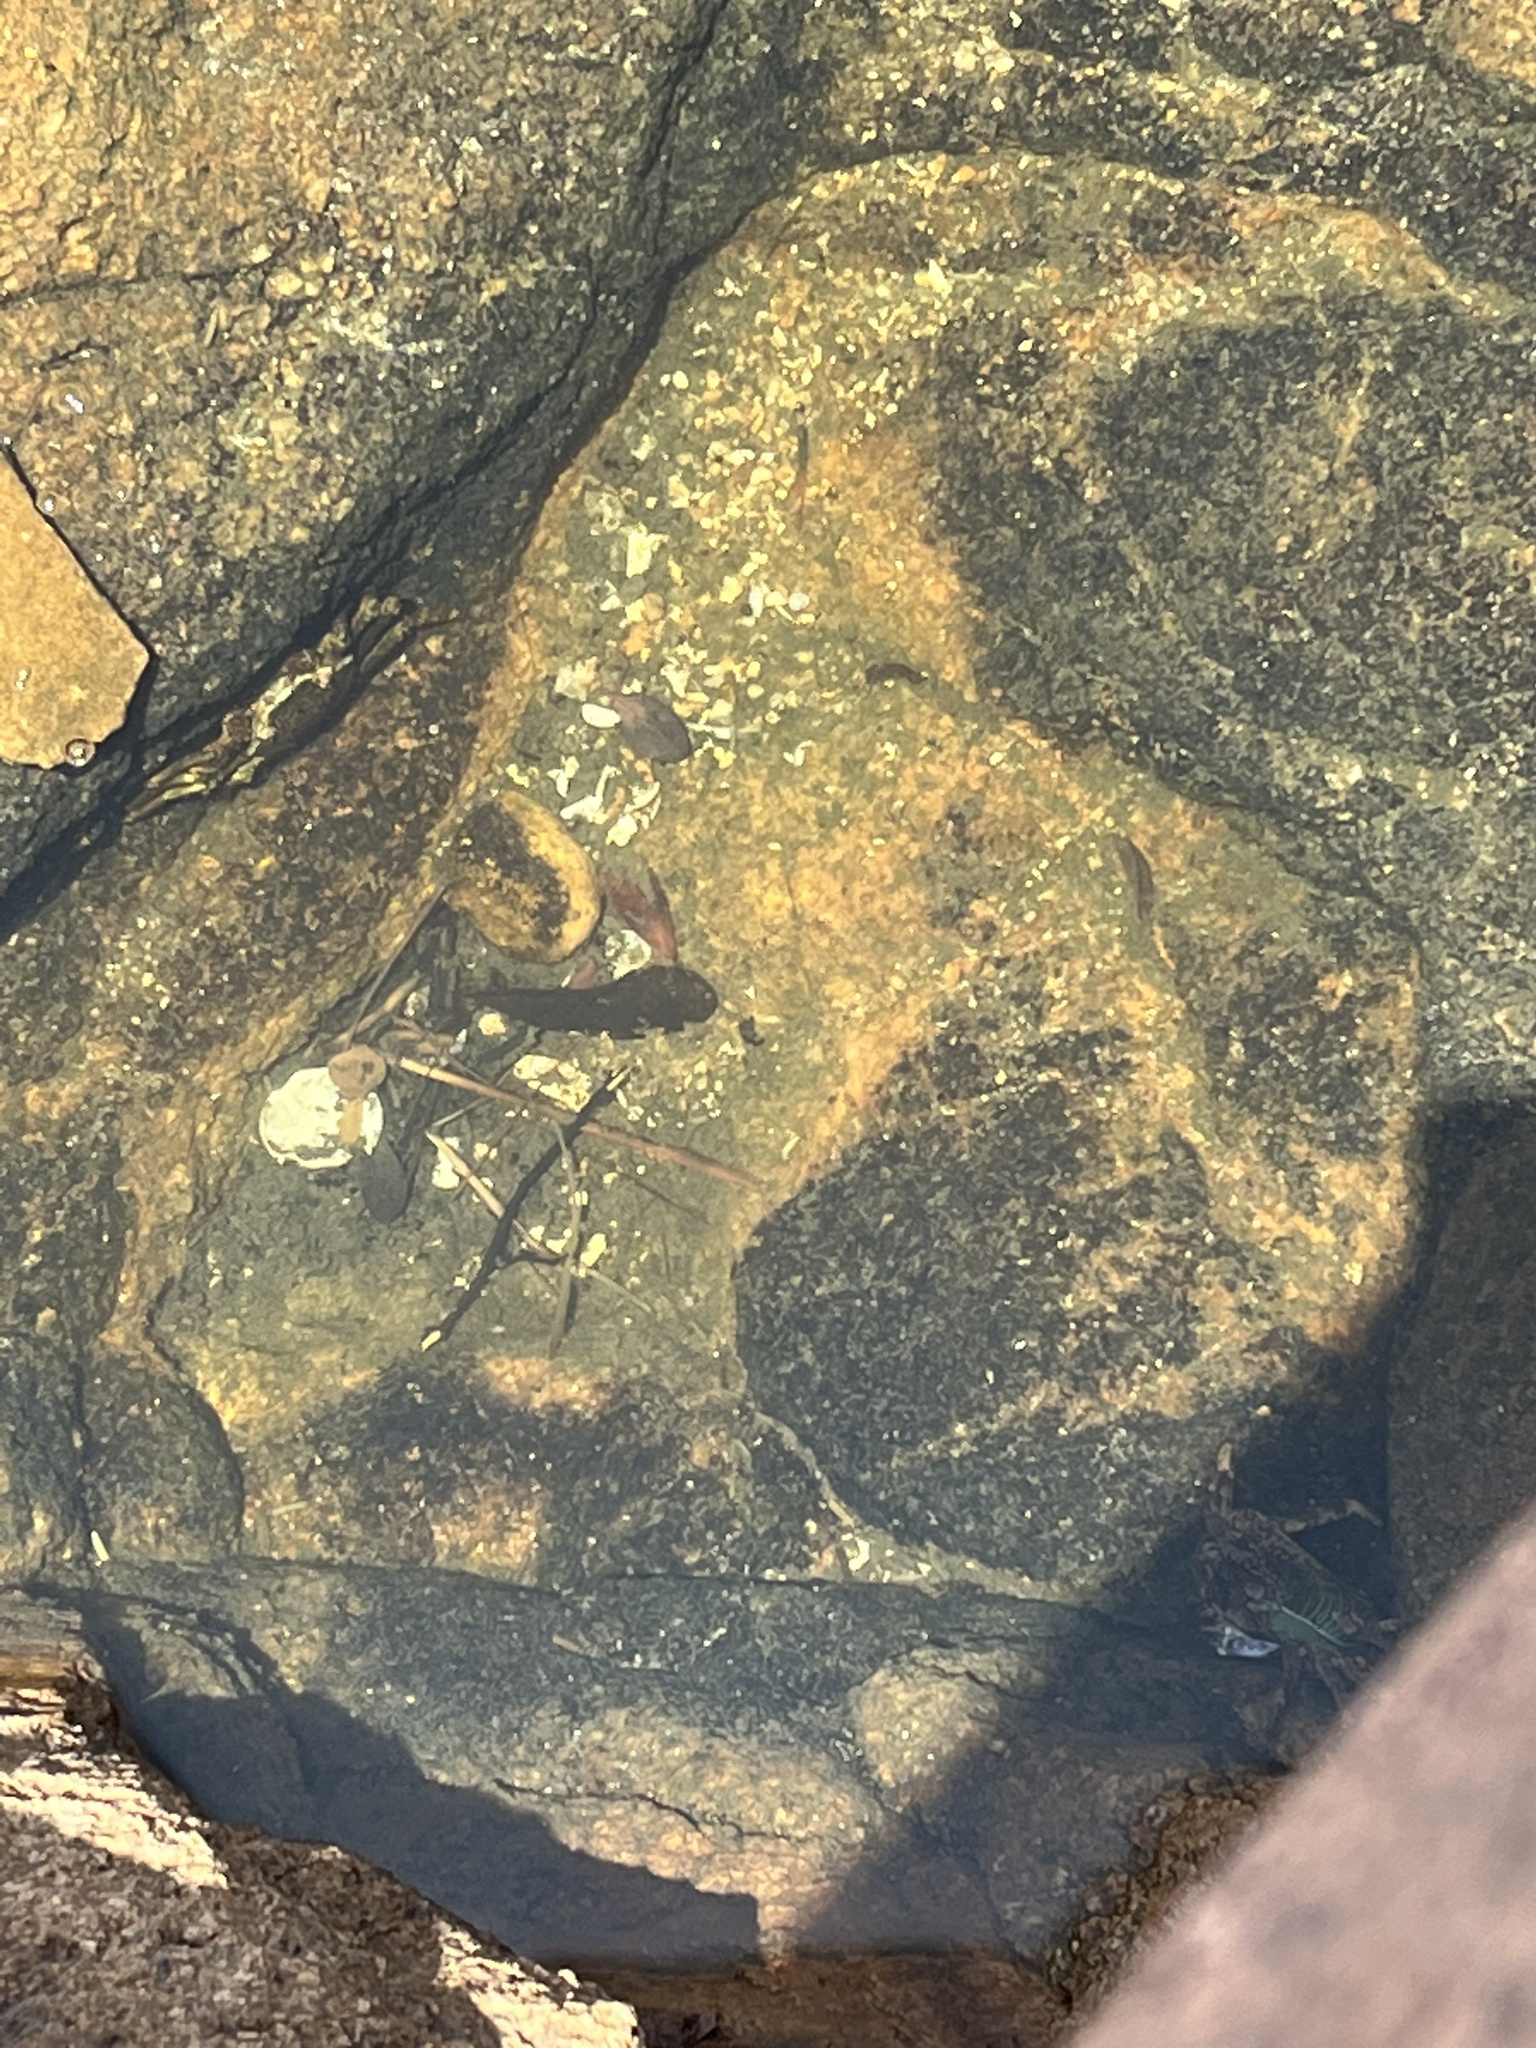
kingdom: Animalia
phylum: Arthropoda
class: Malacostraca
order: Decapoda
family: Grapsidae
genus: Metopograpsus
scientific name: Metopograpsus quadridentatus
